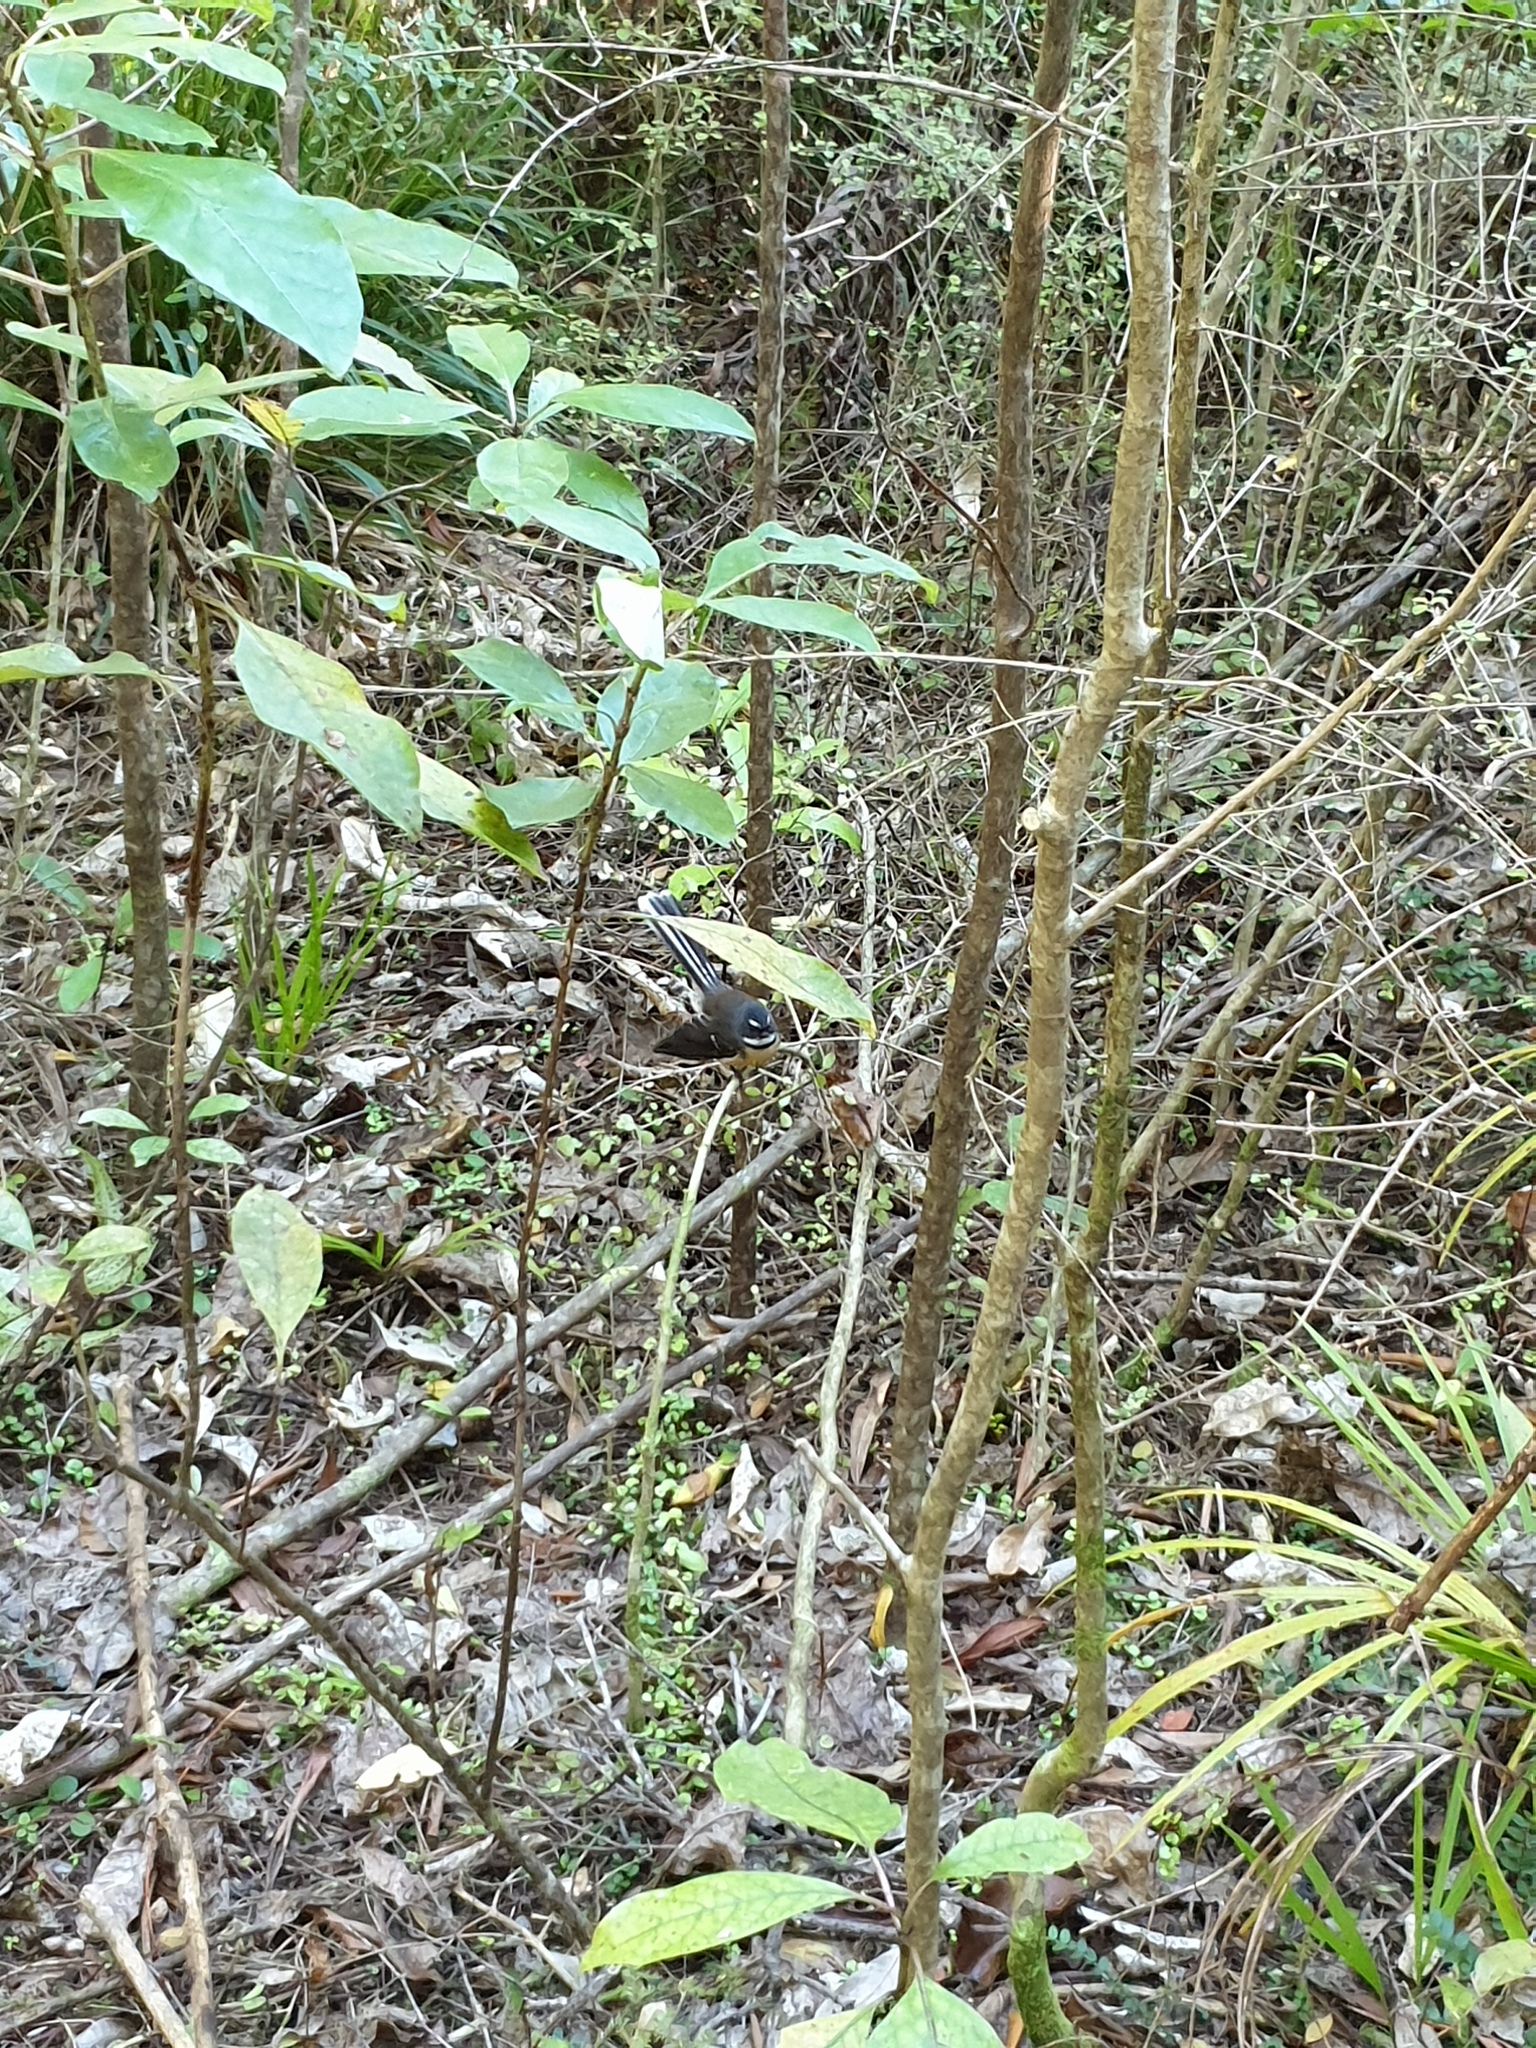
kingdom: Animalia
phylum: Chordata
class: Aves
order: Passeriformes
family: Rhipiduridae
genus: Rhipidura
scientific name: Rhipidura fuliginosa
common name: New zealand fantail
